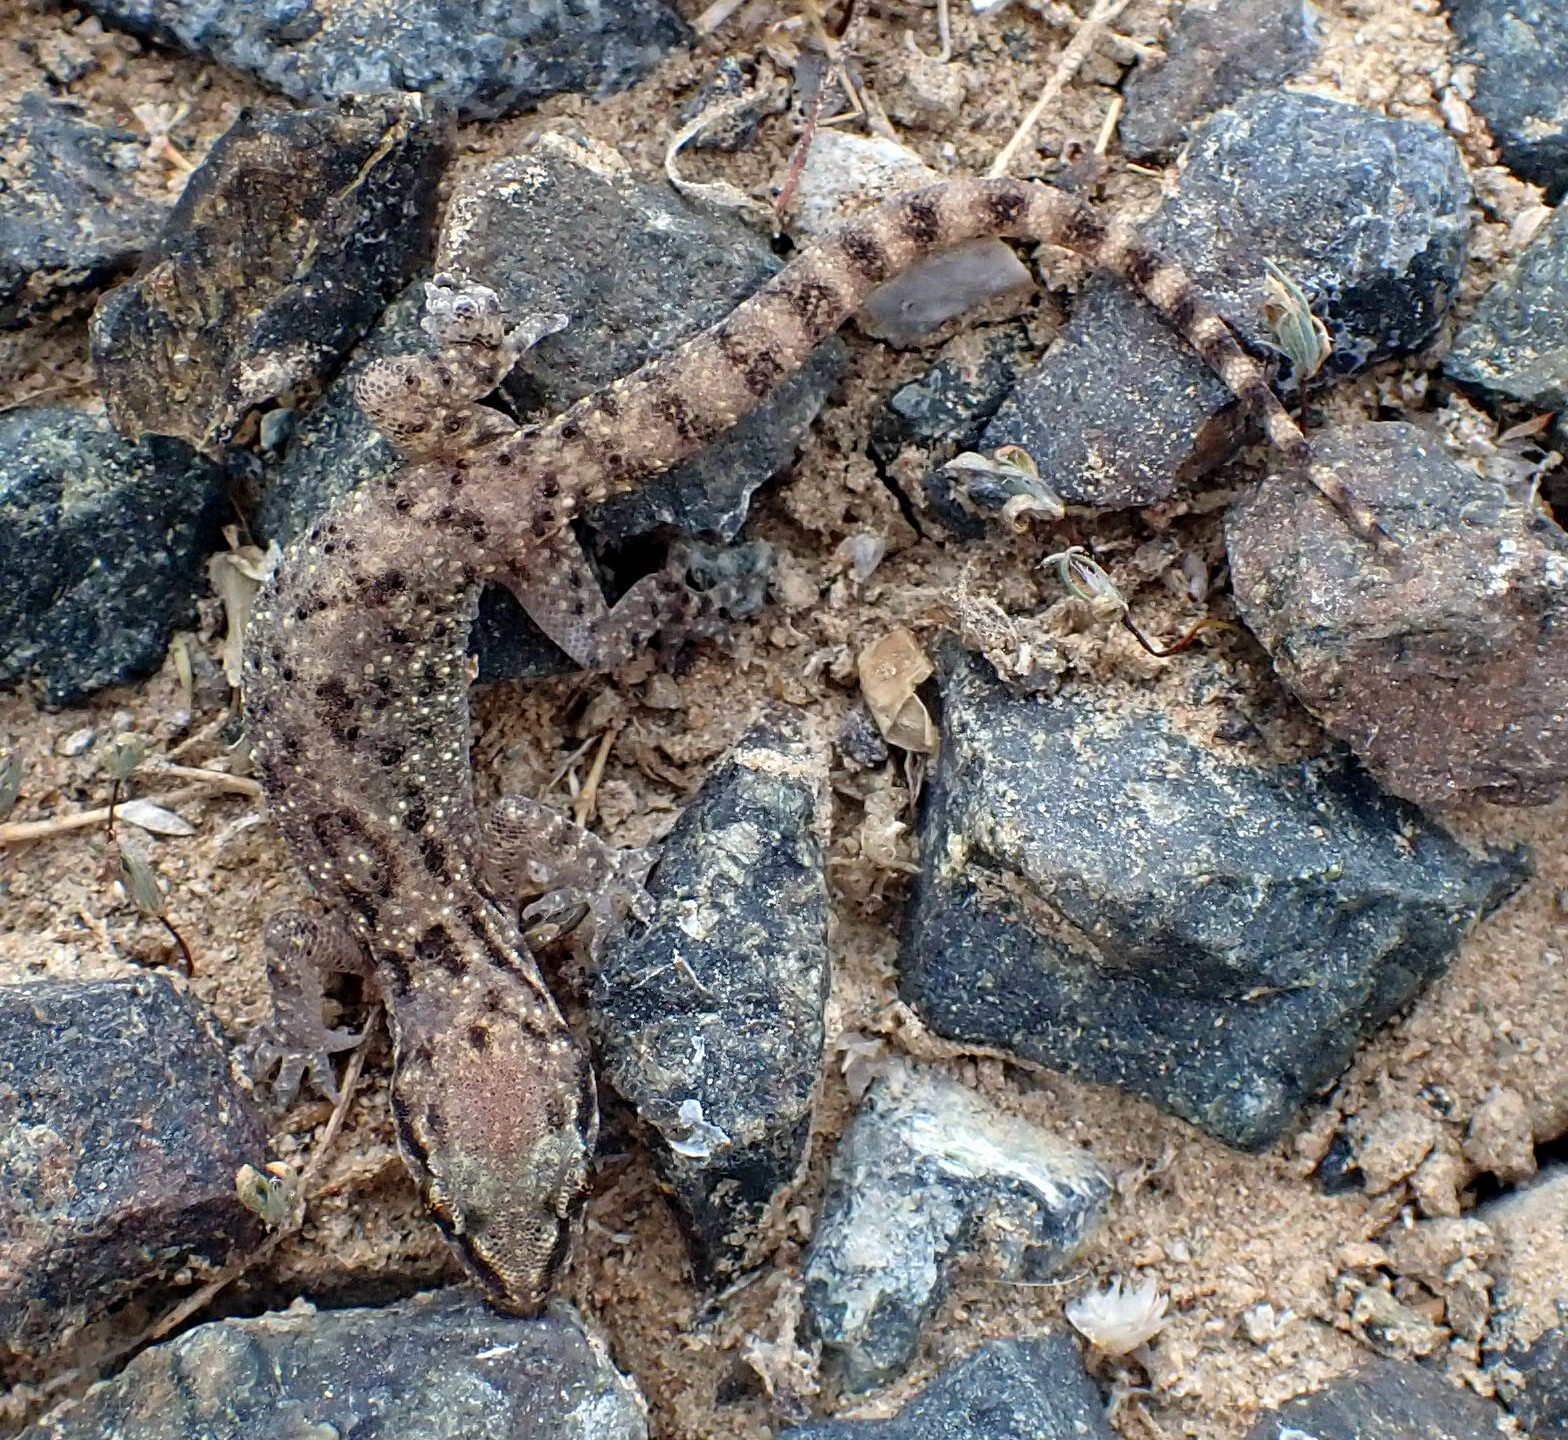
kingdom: Animalia
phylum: Chordata
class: Squamata
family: Gekkonidae
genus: Hemidactylus
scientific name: Hemidactylus robustus
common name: Heyden’s gecko
